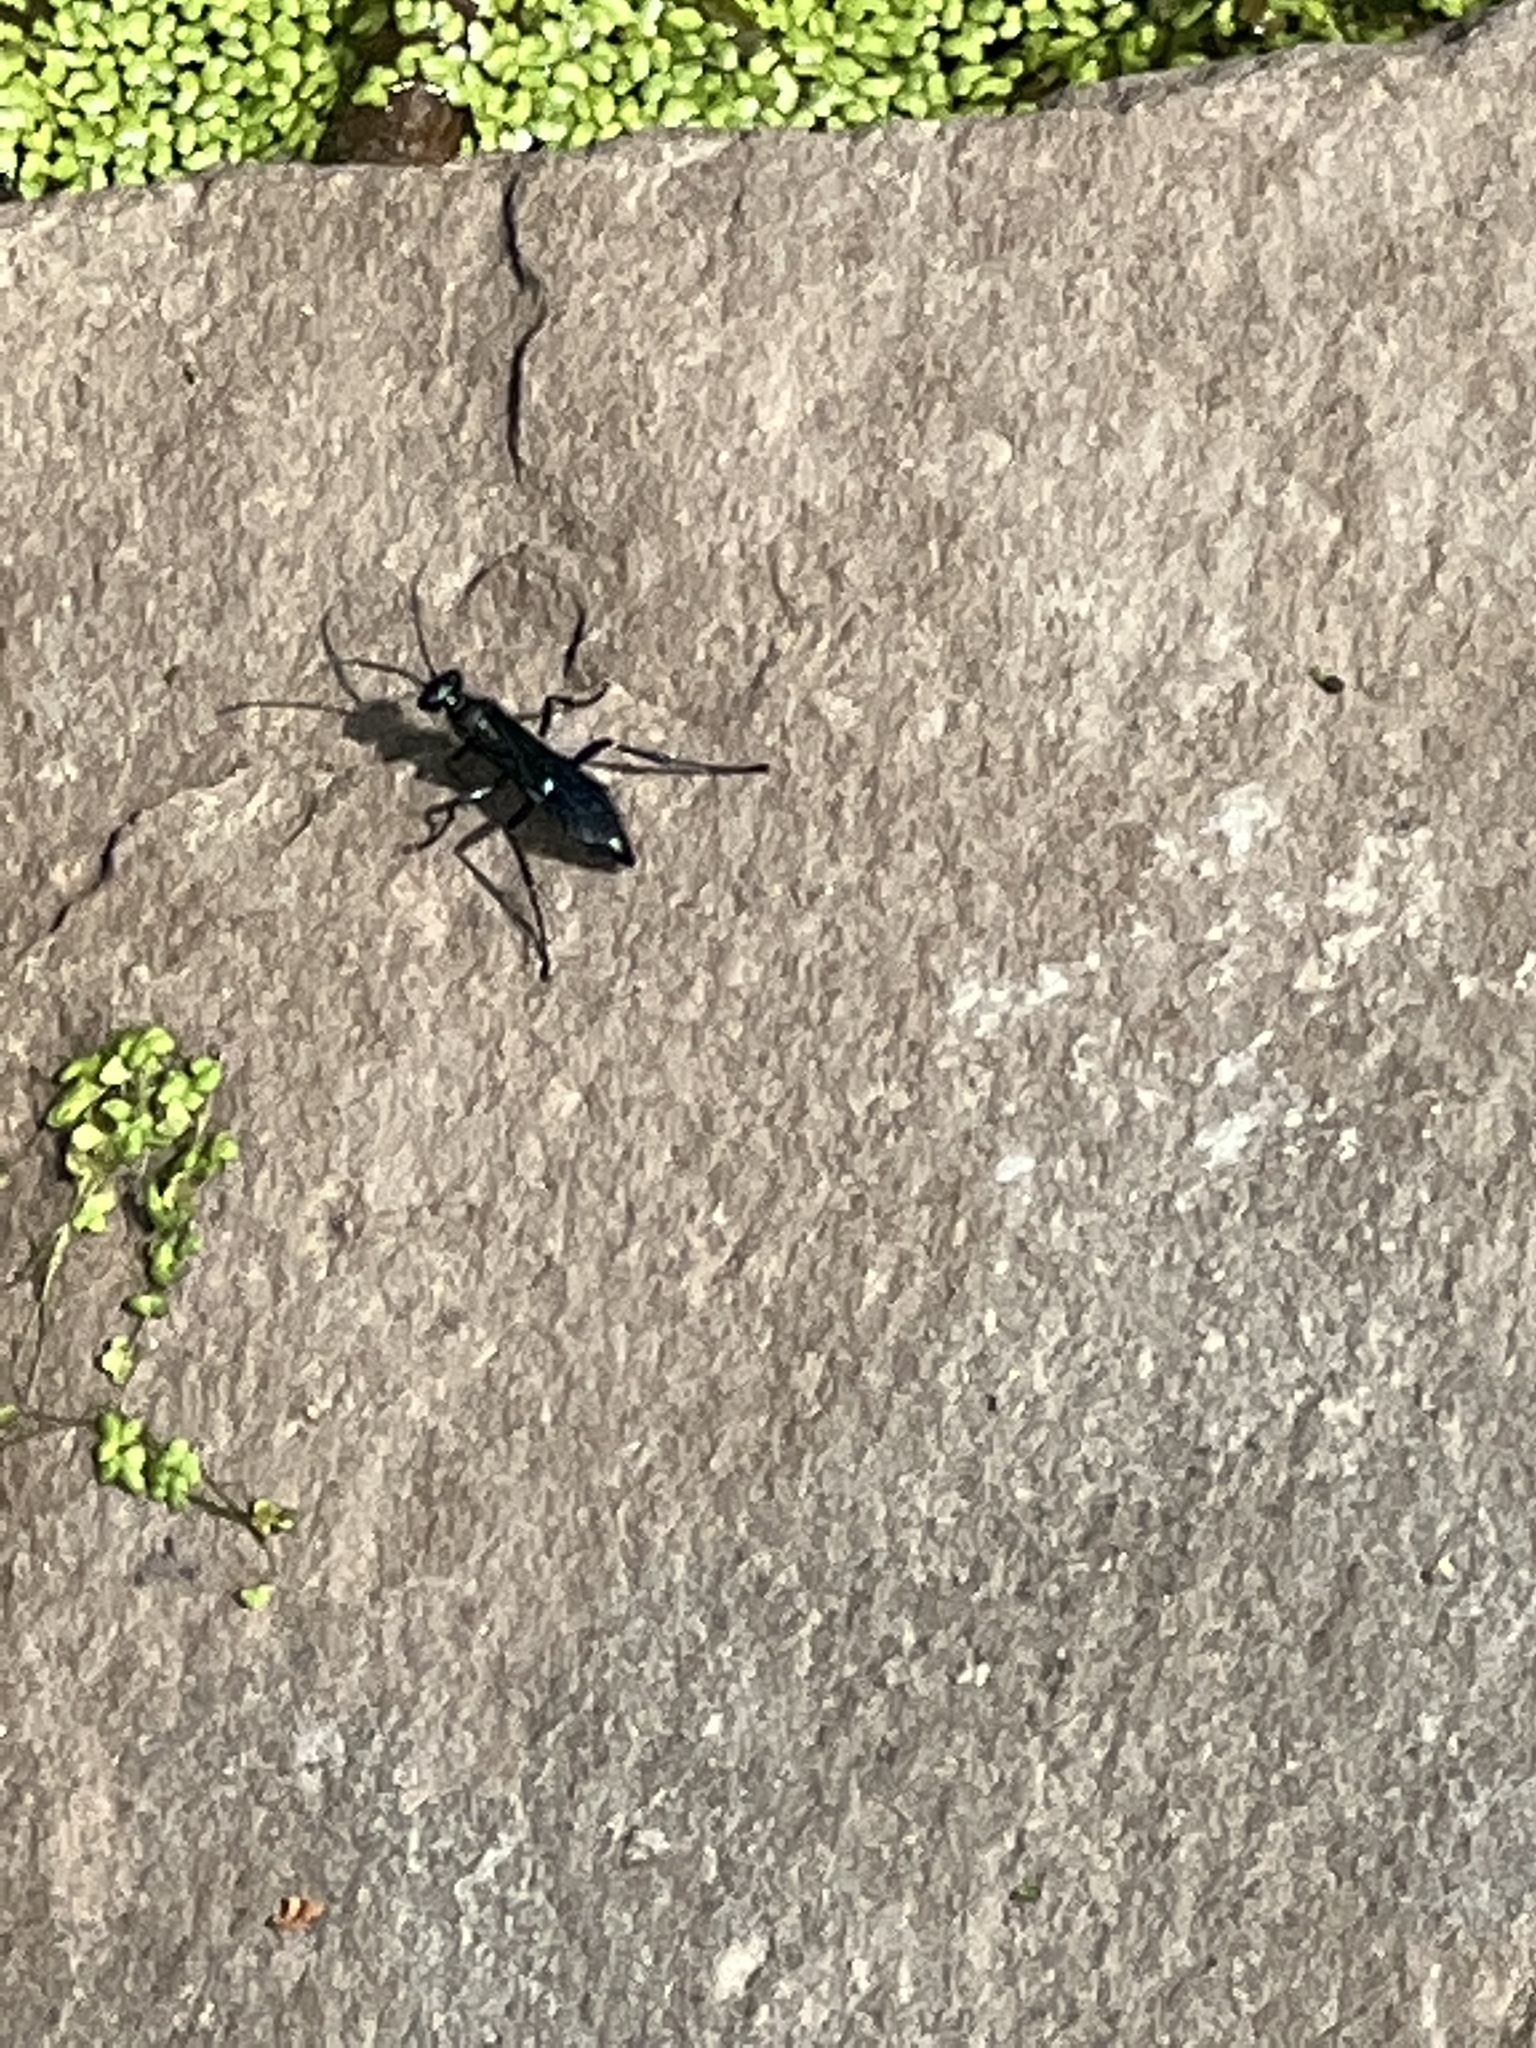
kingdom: Animalia
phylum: Arthropoda
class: Insecta
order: Hymenoptera
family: Sphecidae
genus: Chalybion
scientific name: Chalybion californicum
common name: Mud dauber
